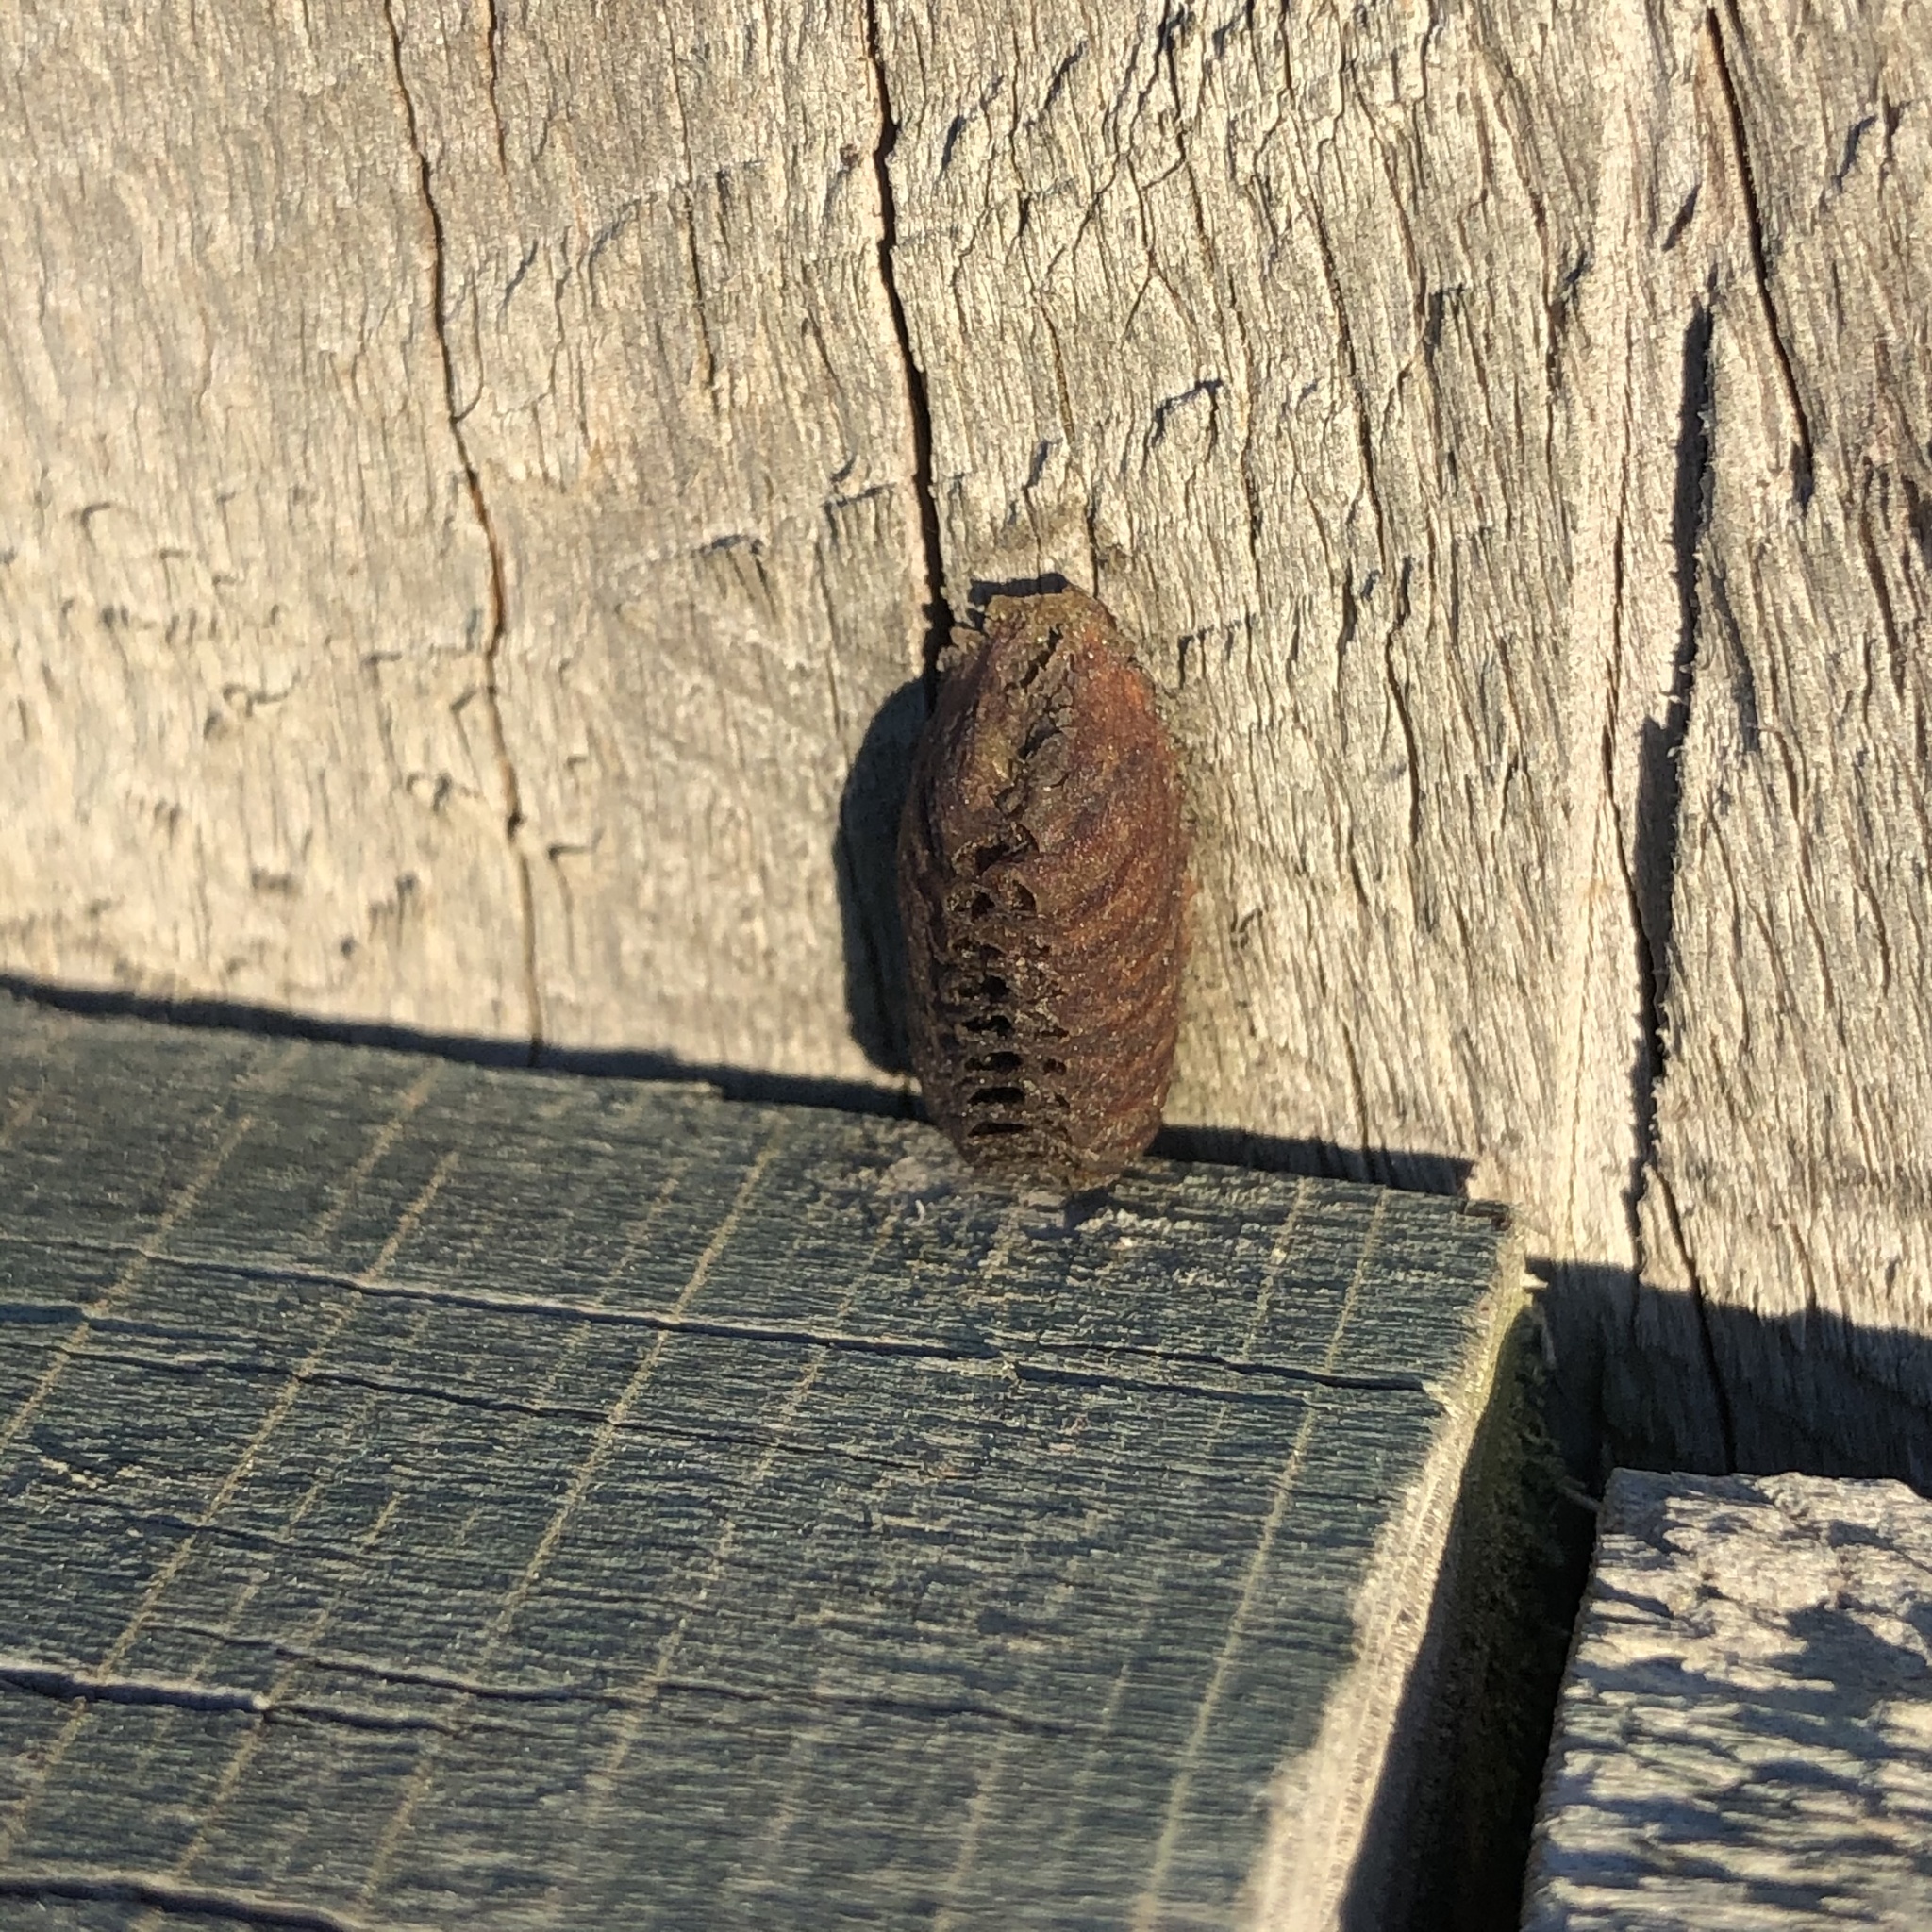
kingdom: Animalia
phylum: Arthropoda
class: Insecta
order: Mantodea
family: Mantidae
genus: Orthodera
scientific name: Orthodera novaezealandiae
